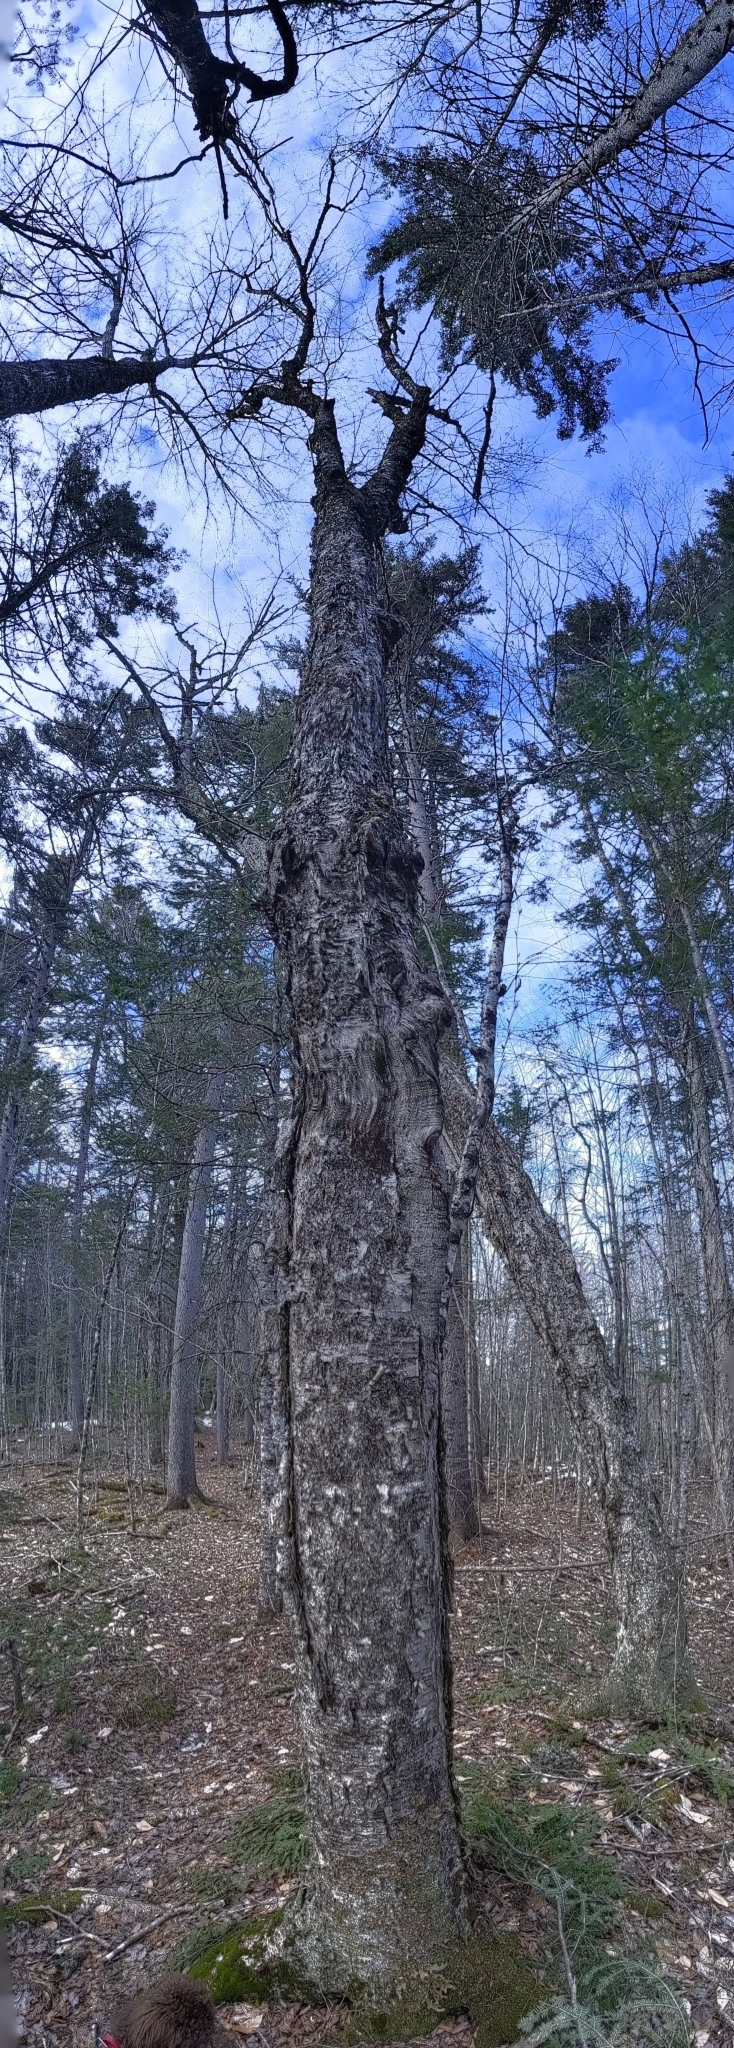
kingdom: Plantae
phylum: Tracheophyta
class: Magnoliopsida
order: Fagales
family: Betulaceae
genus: Betula
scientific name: Betula alleghaniensis
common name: Yellow birch
